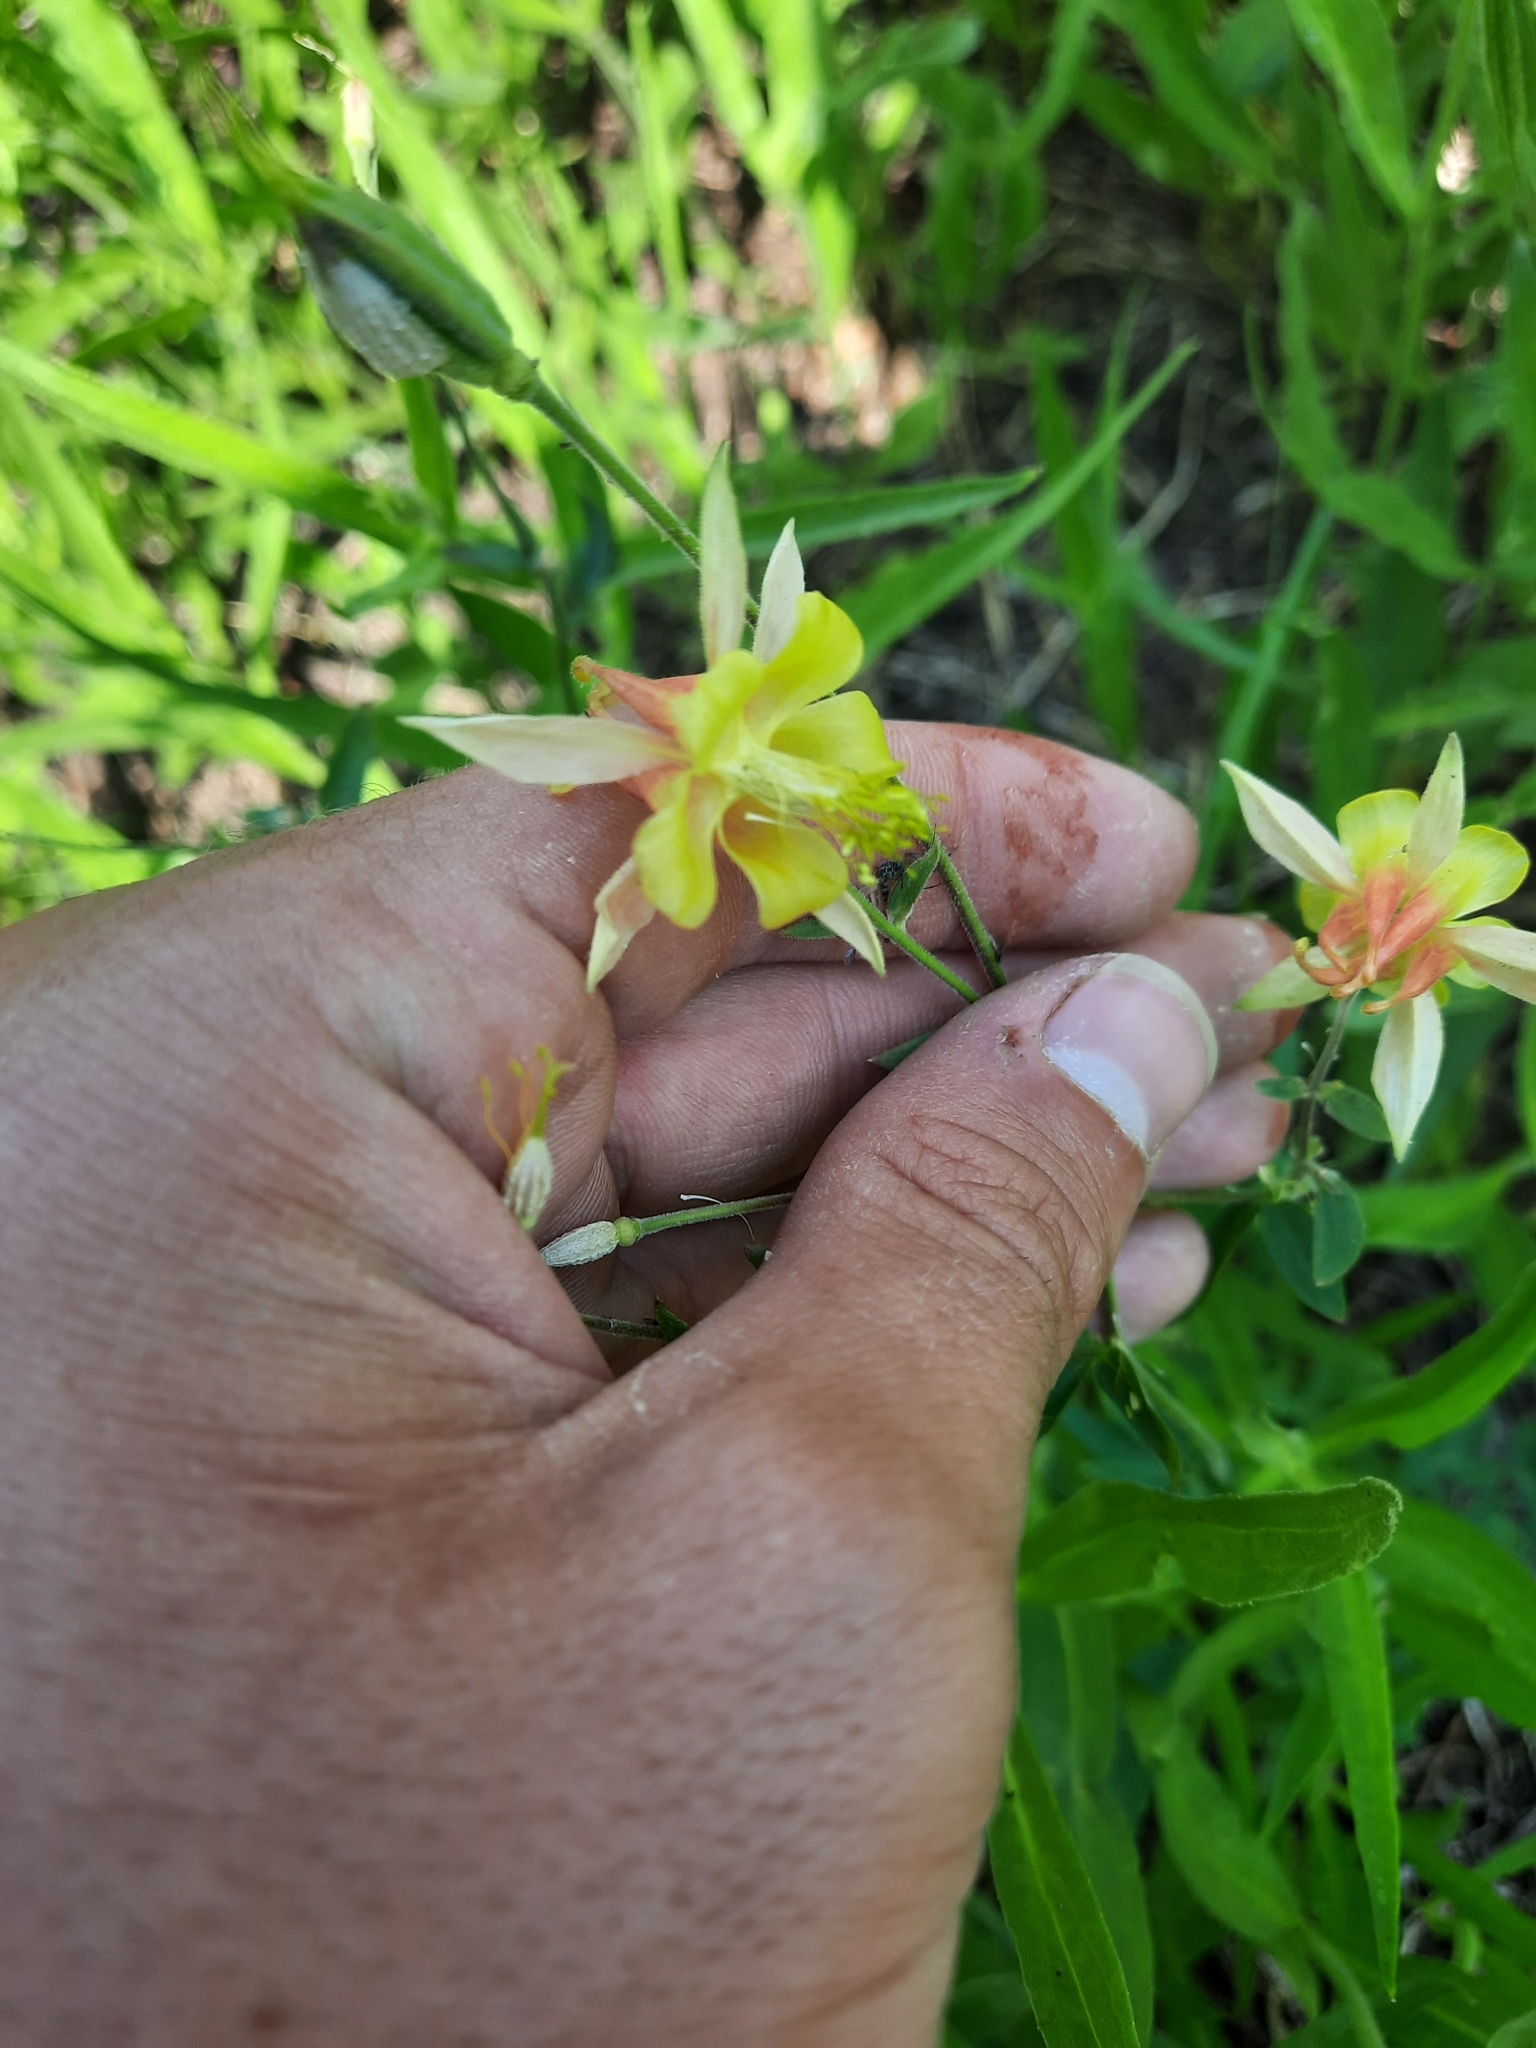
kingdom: Plantae
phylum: Tracheophyta
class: Magnoliopsida
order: Ranunculales
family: Ranunculaceae
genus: Aquilegia
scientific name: Aquilegia flavescens
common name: Yellow columbine
